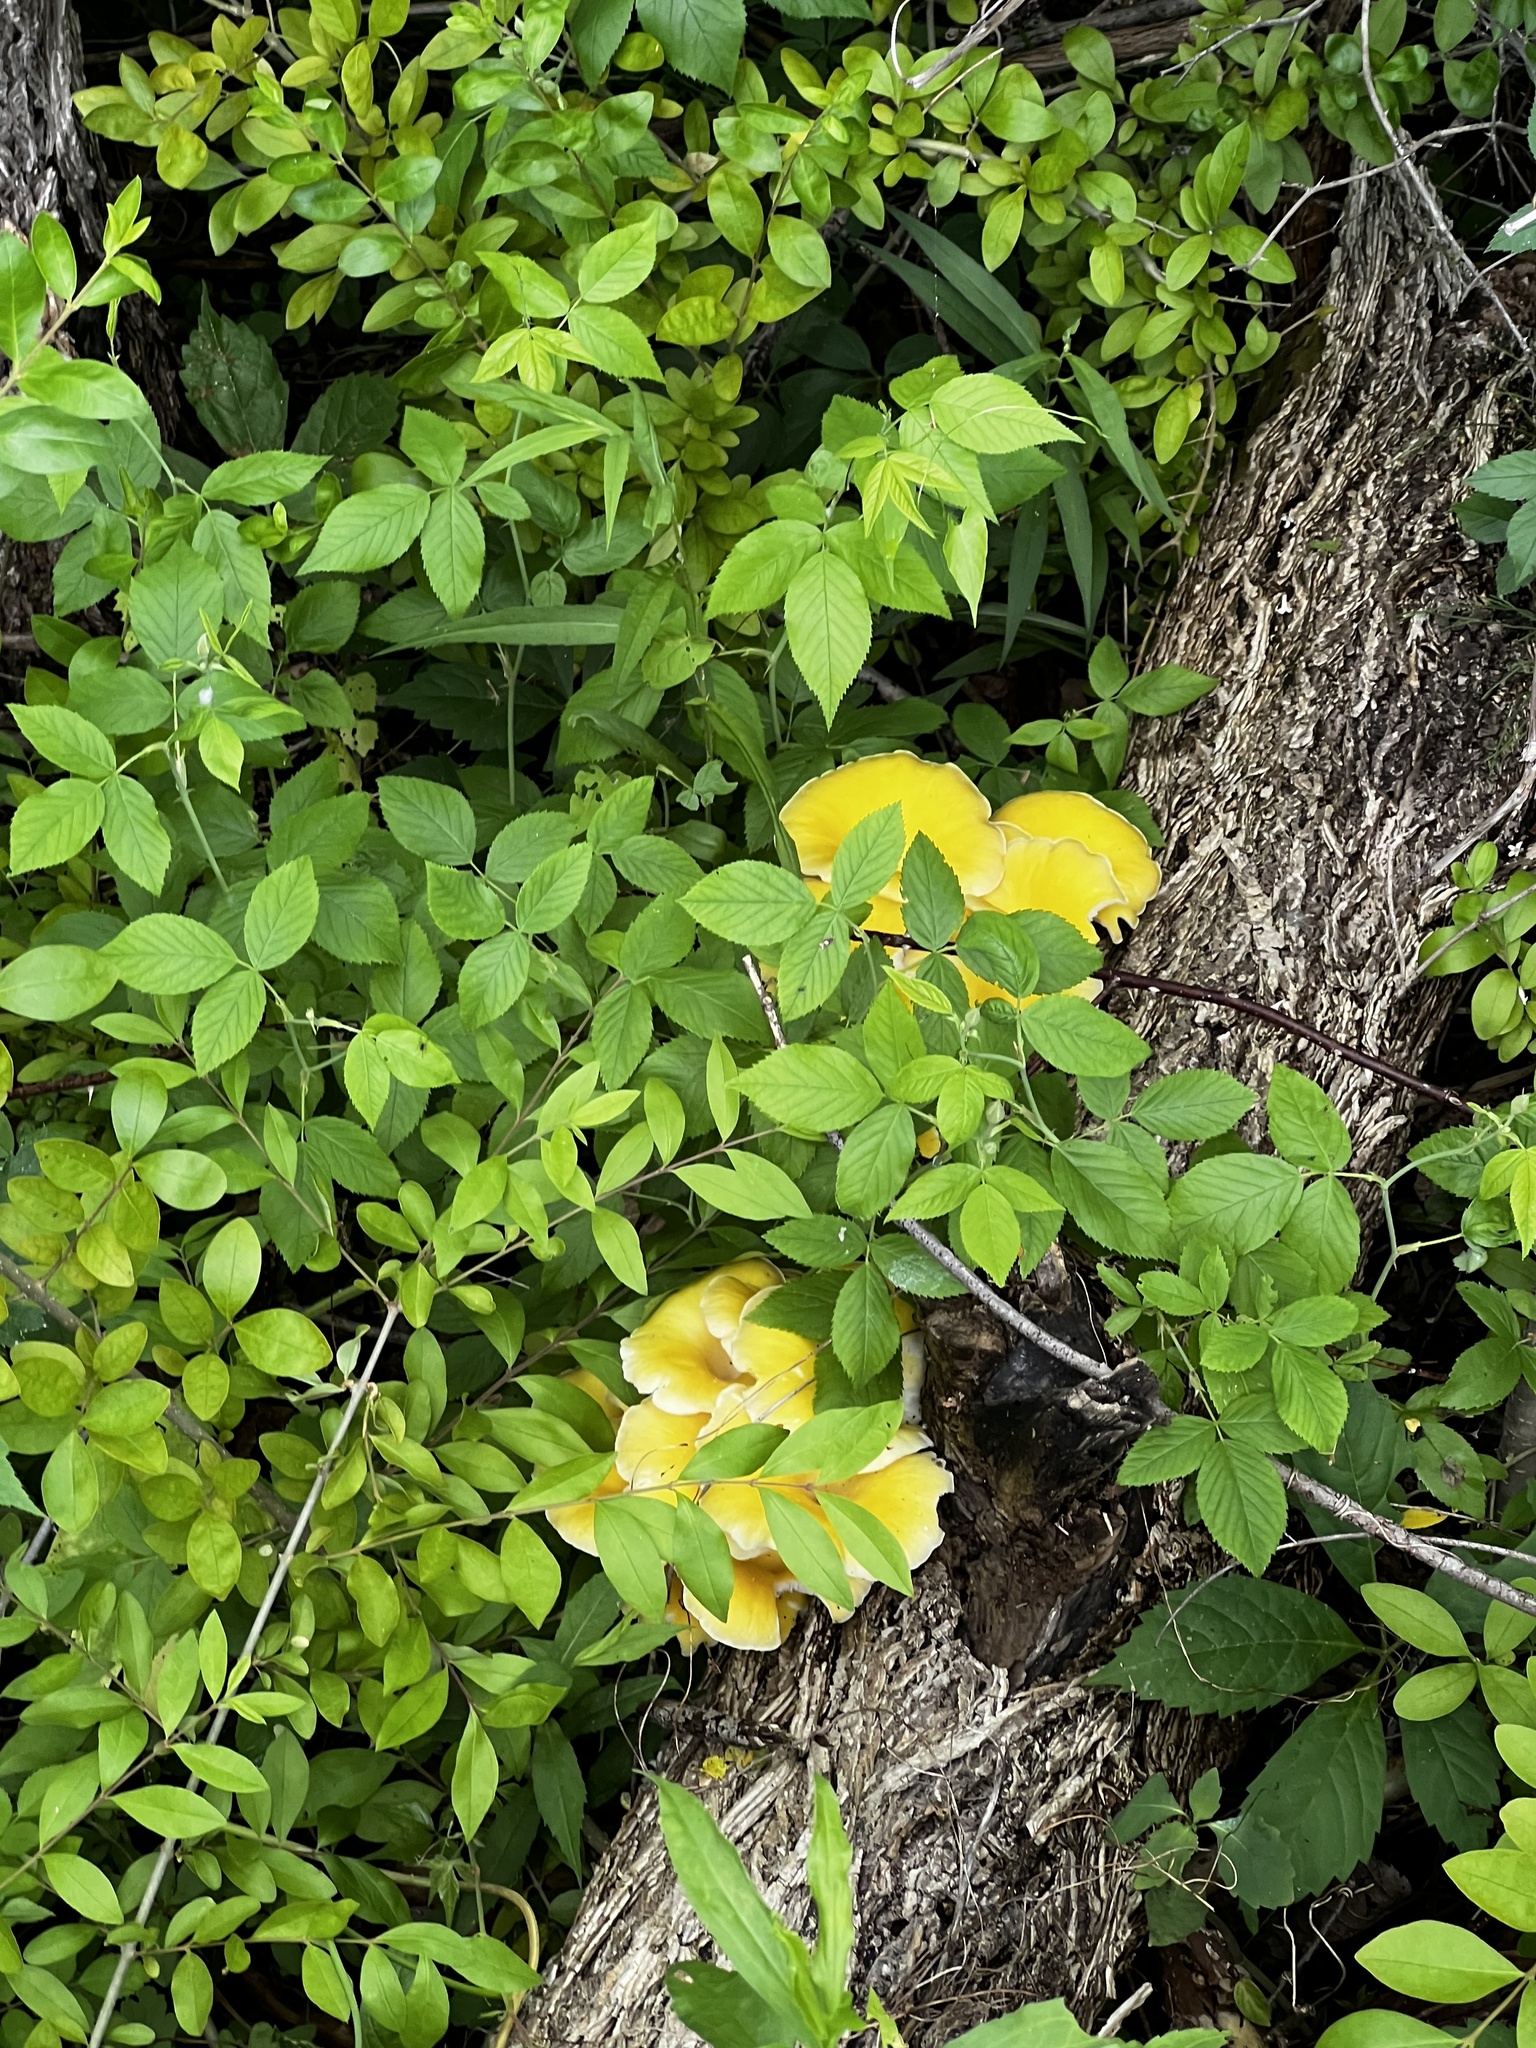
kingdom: Fungi
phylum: Basidiomycota
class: Agaricomycetes
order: Agaricales
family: Pleurotaceae
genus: Pleurotus
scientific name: Pleurotus citrinopileatus
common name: Golden oyster mushroom
